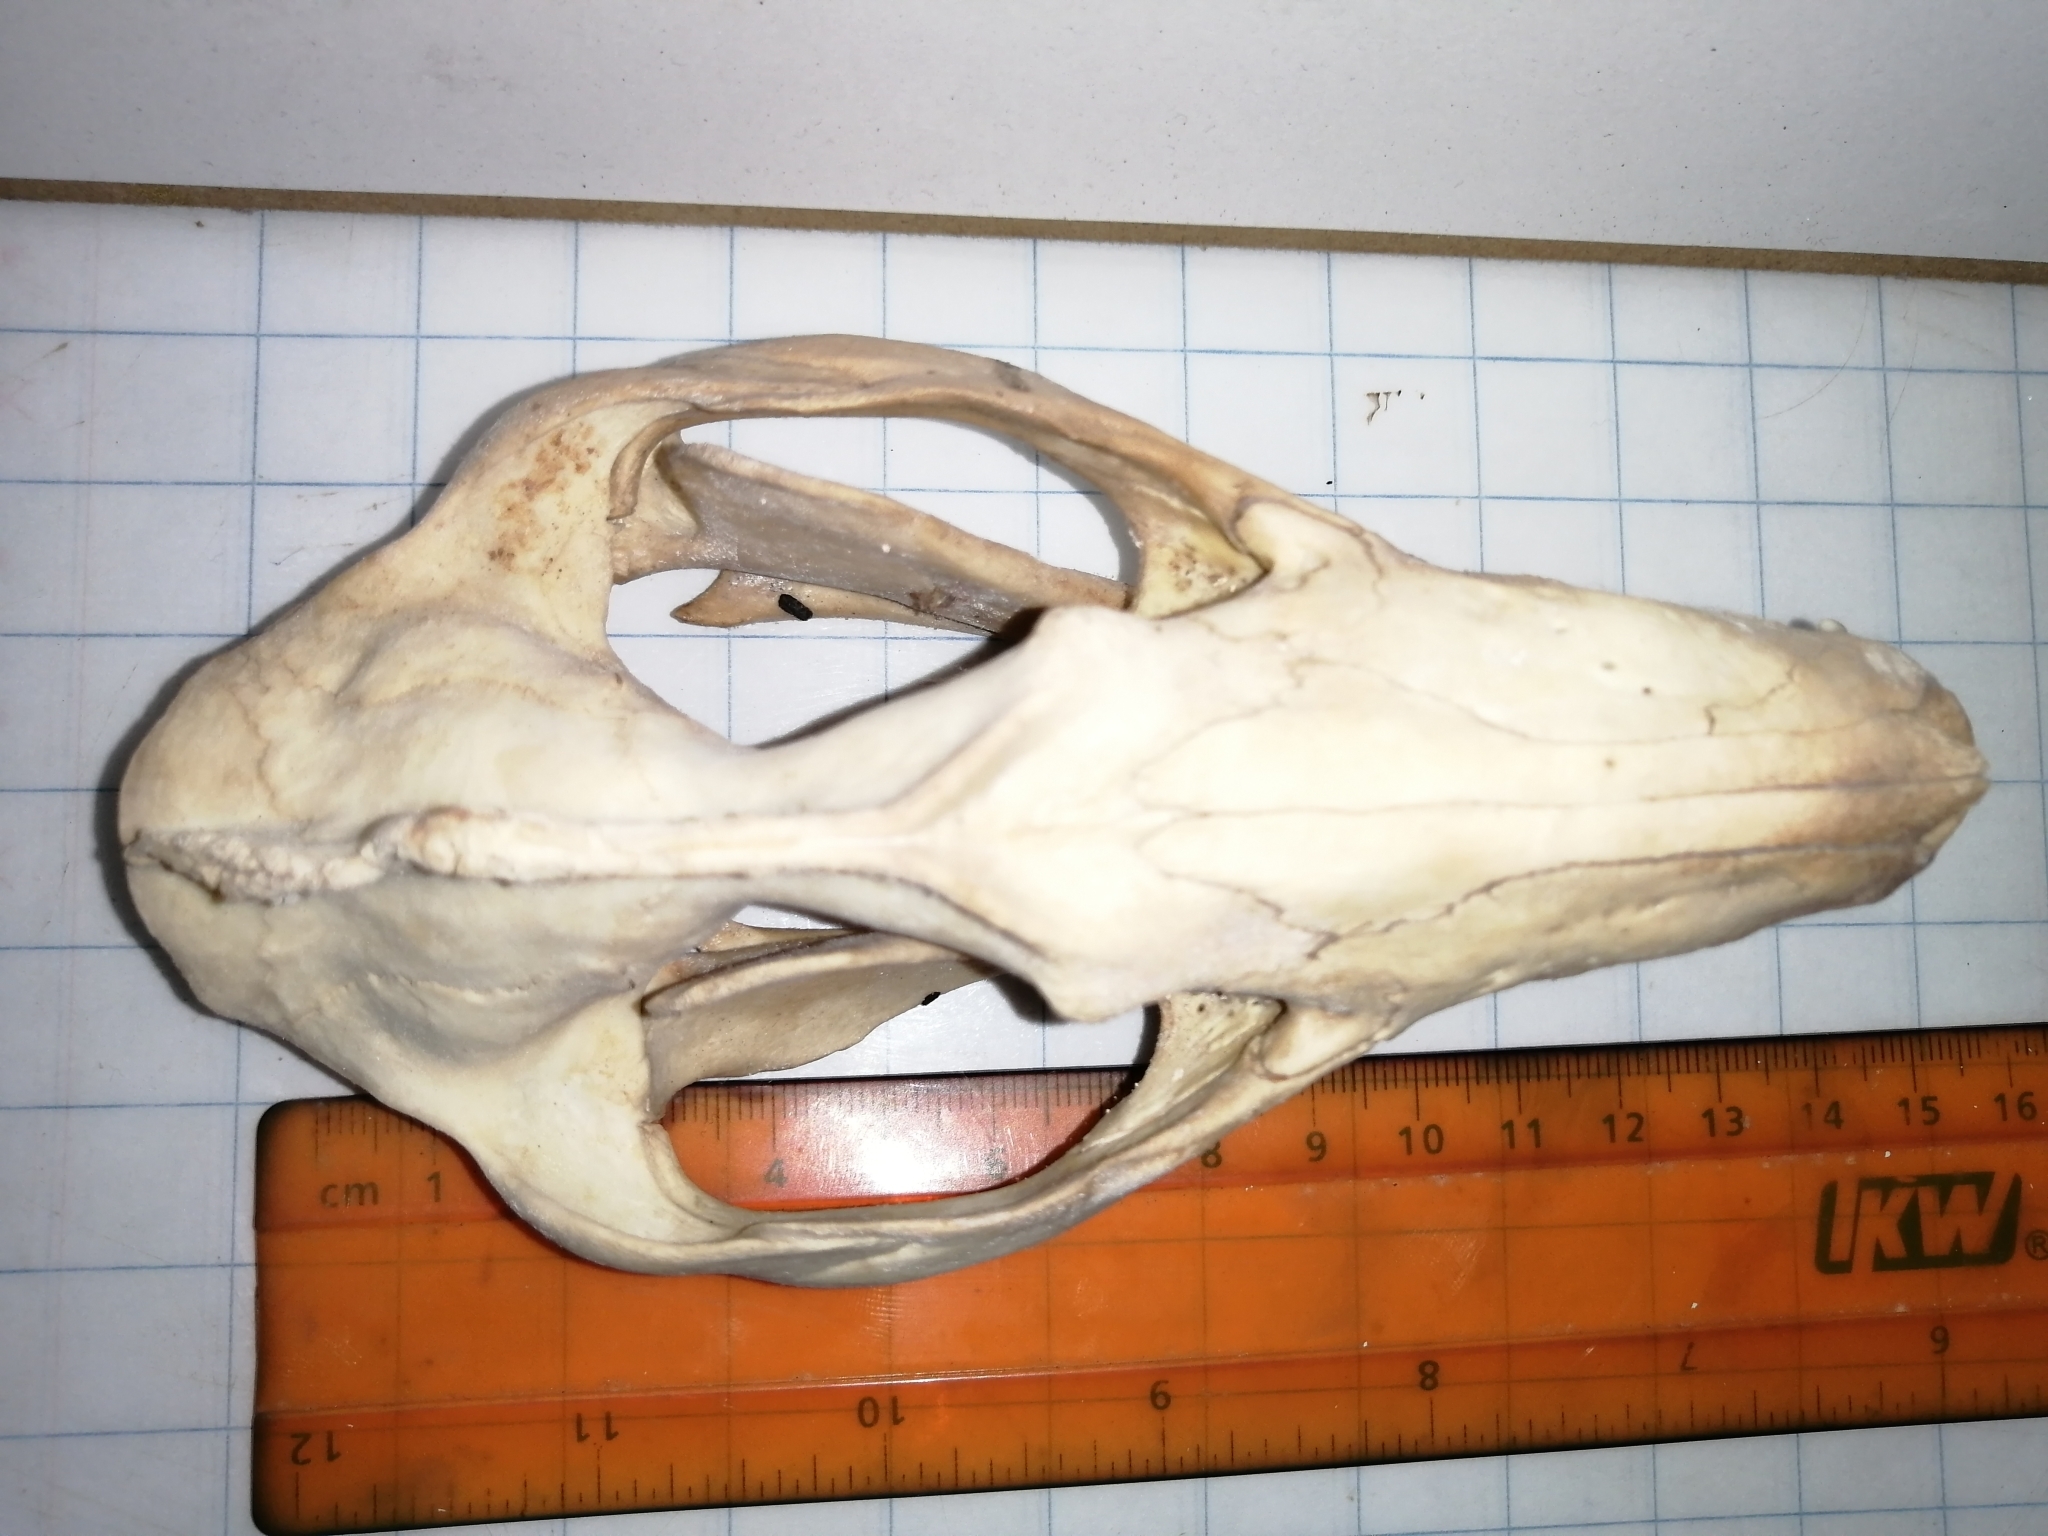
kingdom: Animalia
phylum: Chordata
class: Mammalia
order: Didelphimorphia
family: Didelphidae
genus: Didelphis
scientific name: Didelphis
